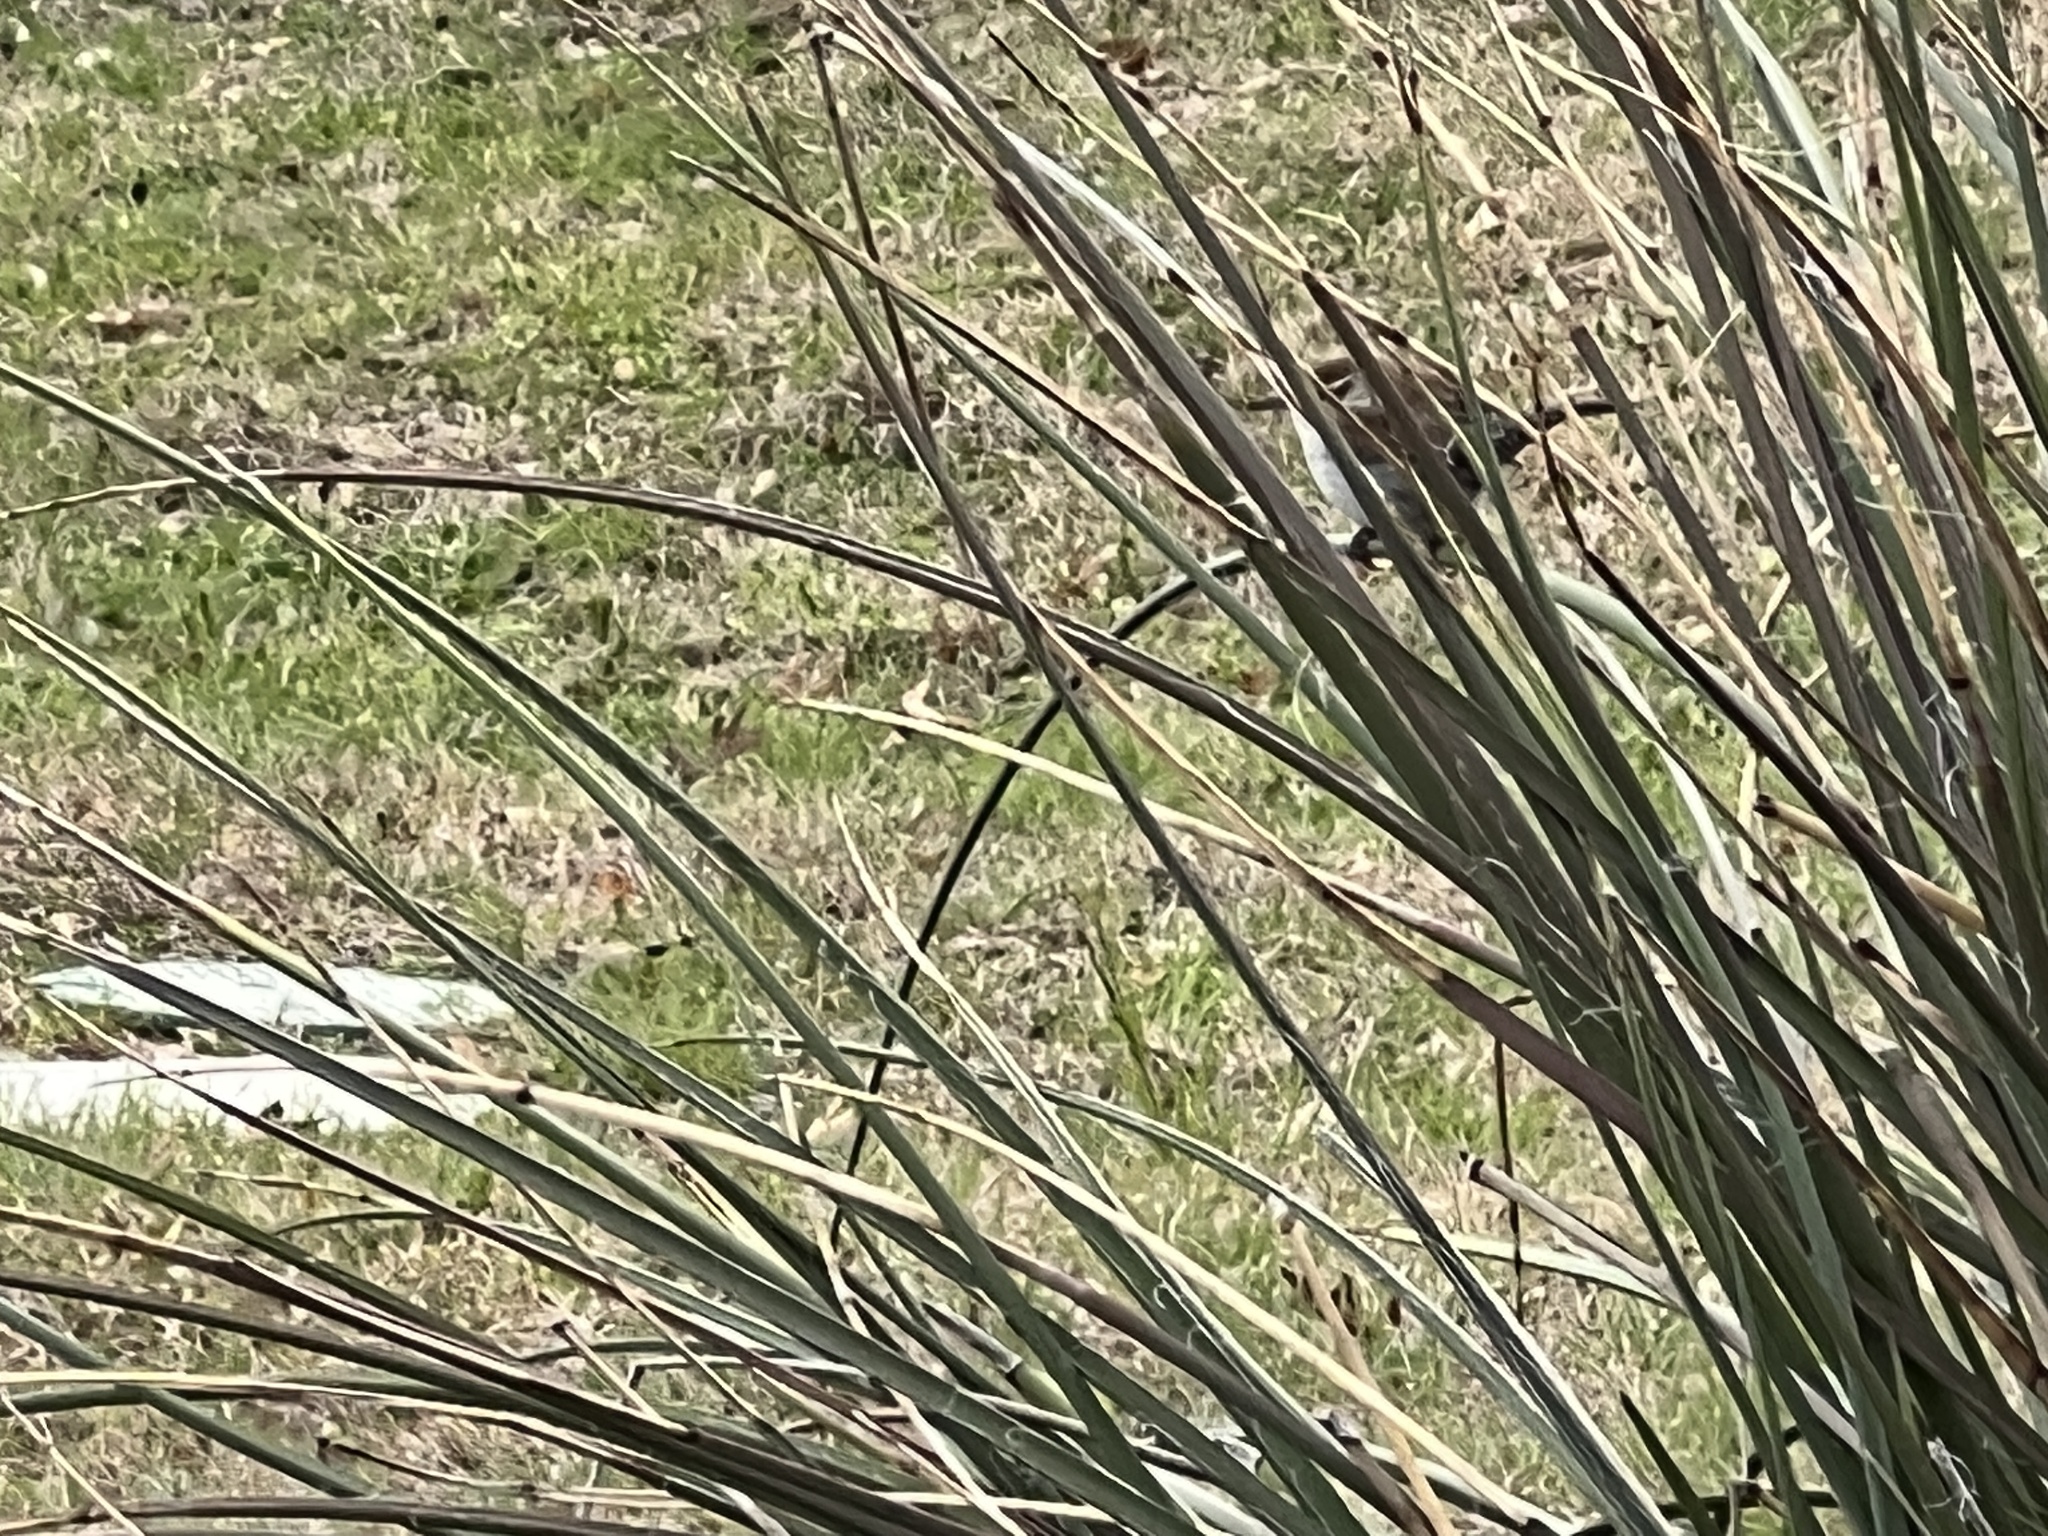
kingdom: Animalia
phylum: Chordata
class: Aves
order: Passeriformes
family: Troglodytidae
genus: Thryomanes
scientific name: Thryomanes bewickii
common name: Bewick's wren
